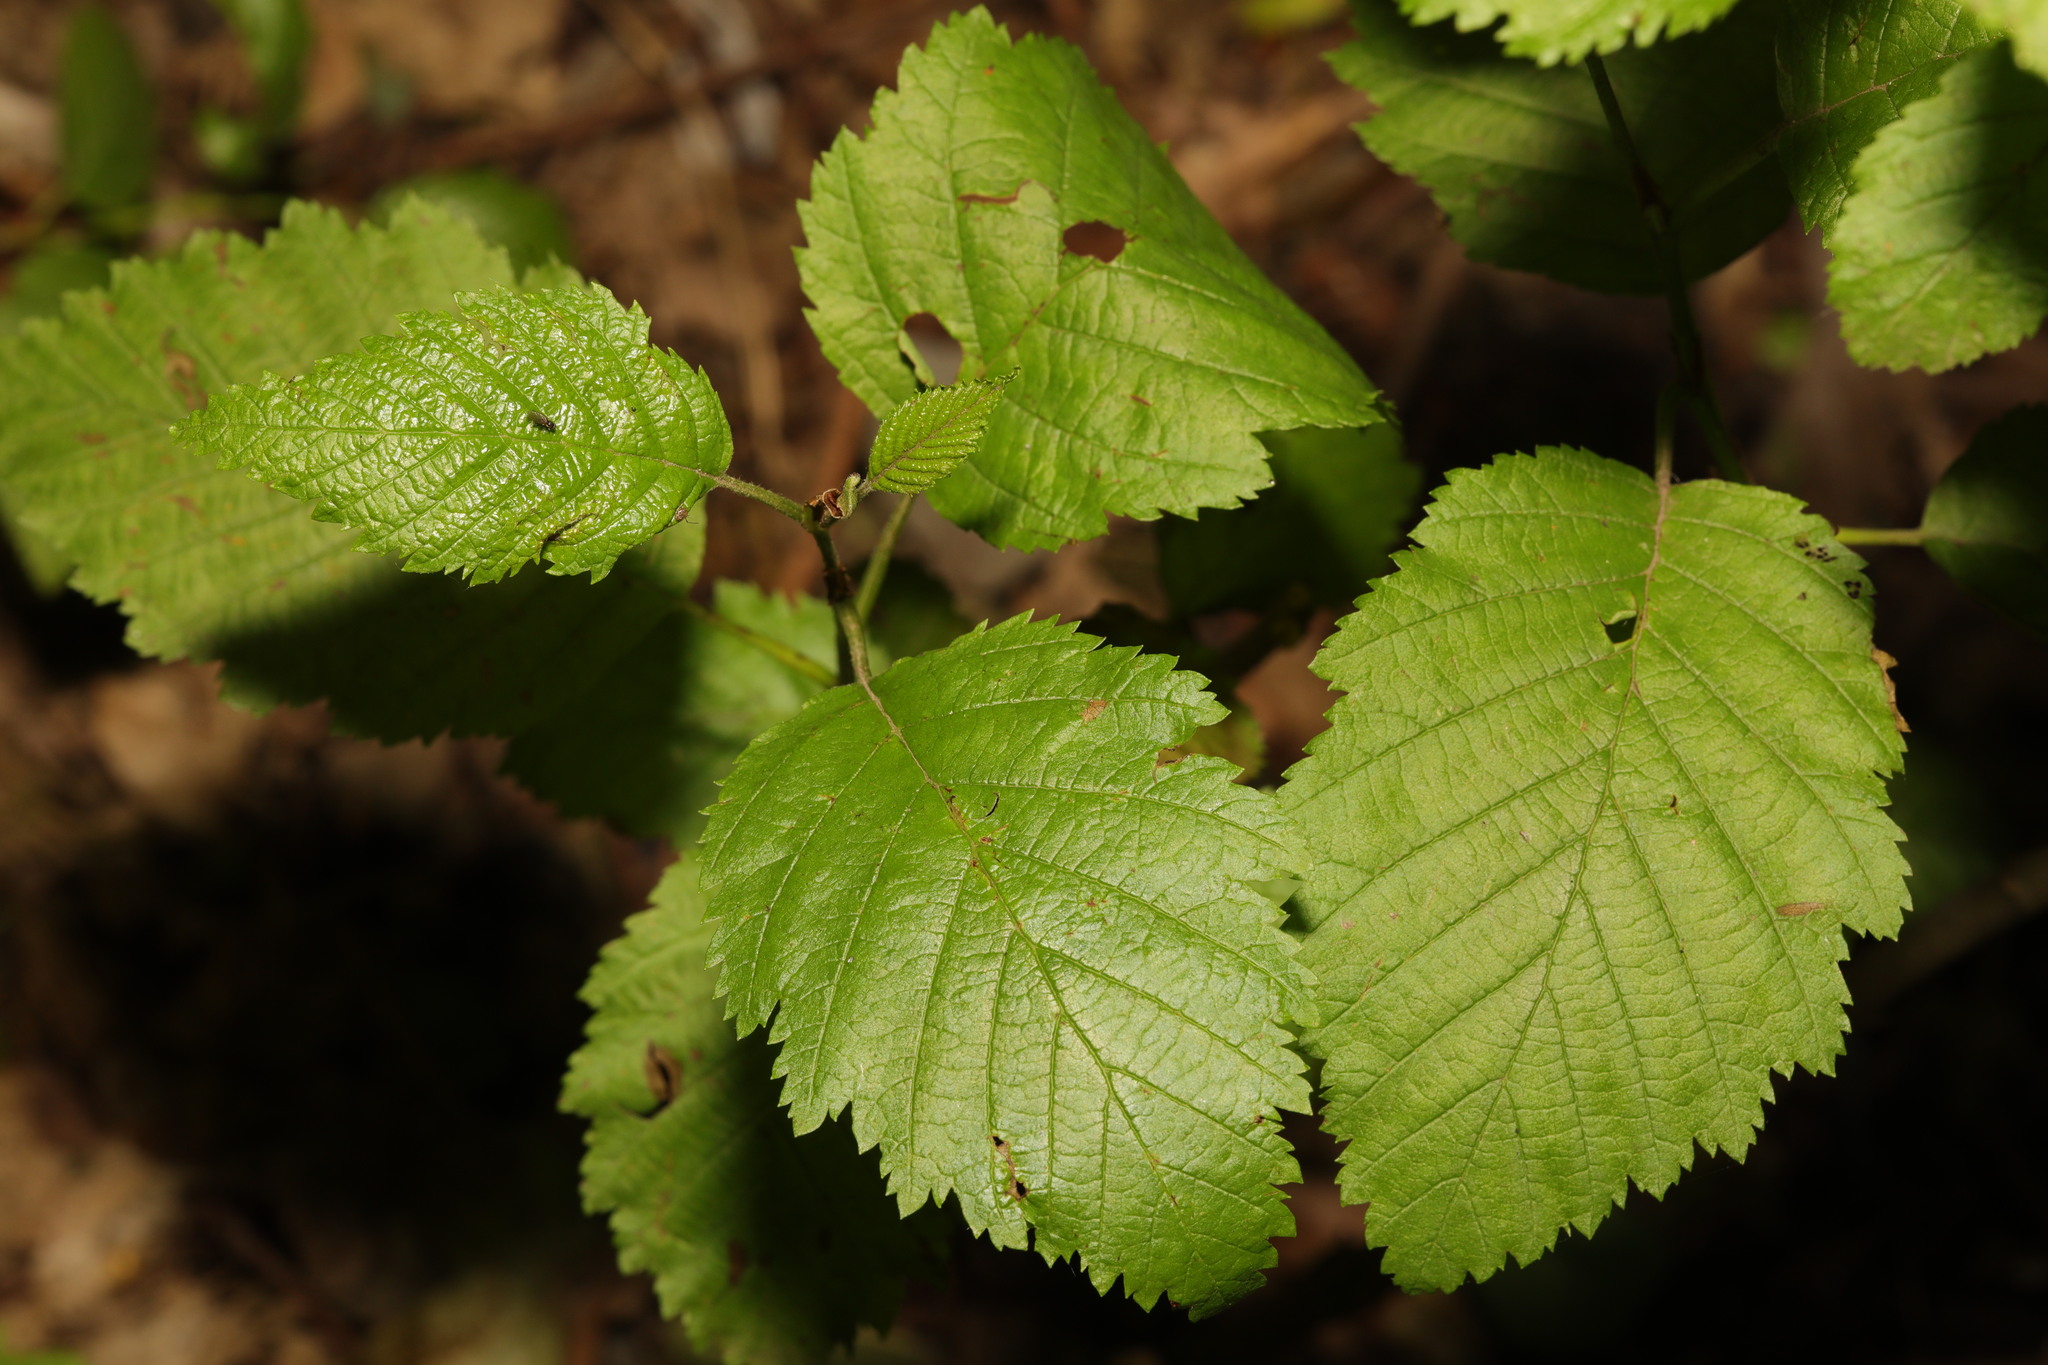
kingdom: Plantae
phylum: Tracheophyta
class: Magnoliopsida
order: Fagales
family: Betulaceae
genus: Alnus
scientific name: Alnus incana
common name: Grey alder
